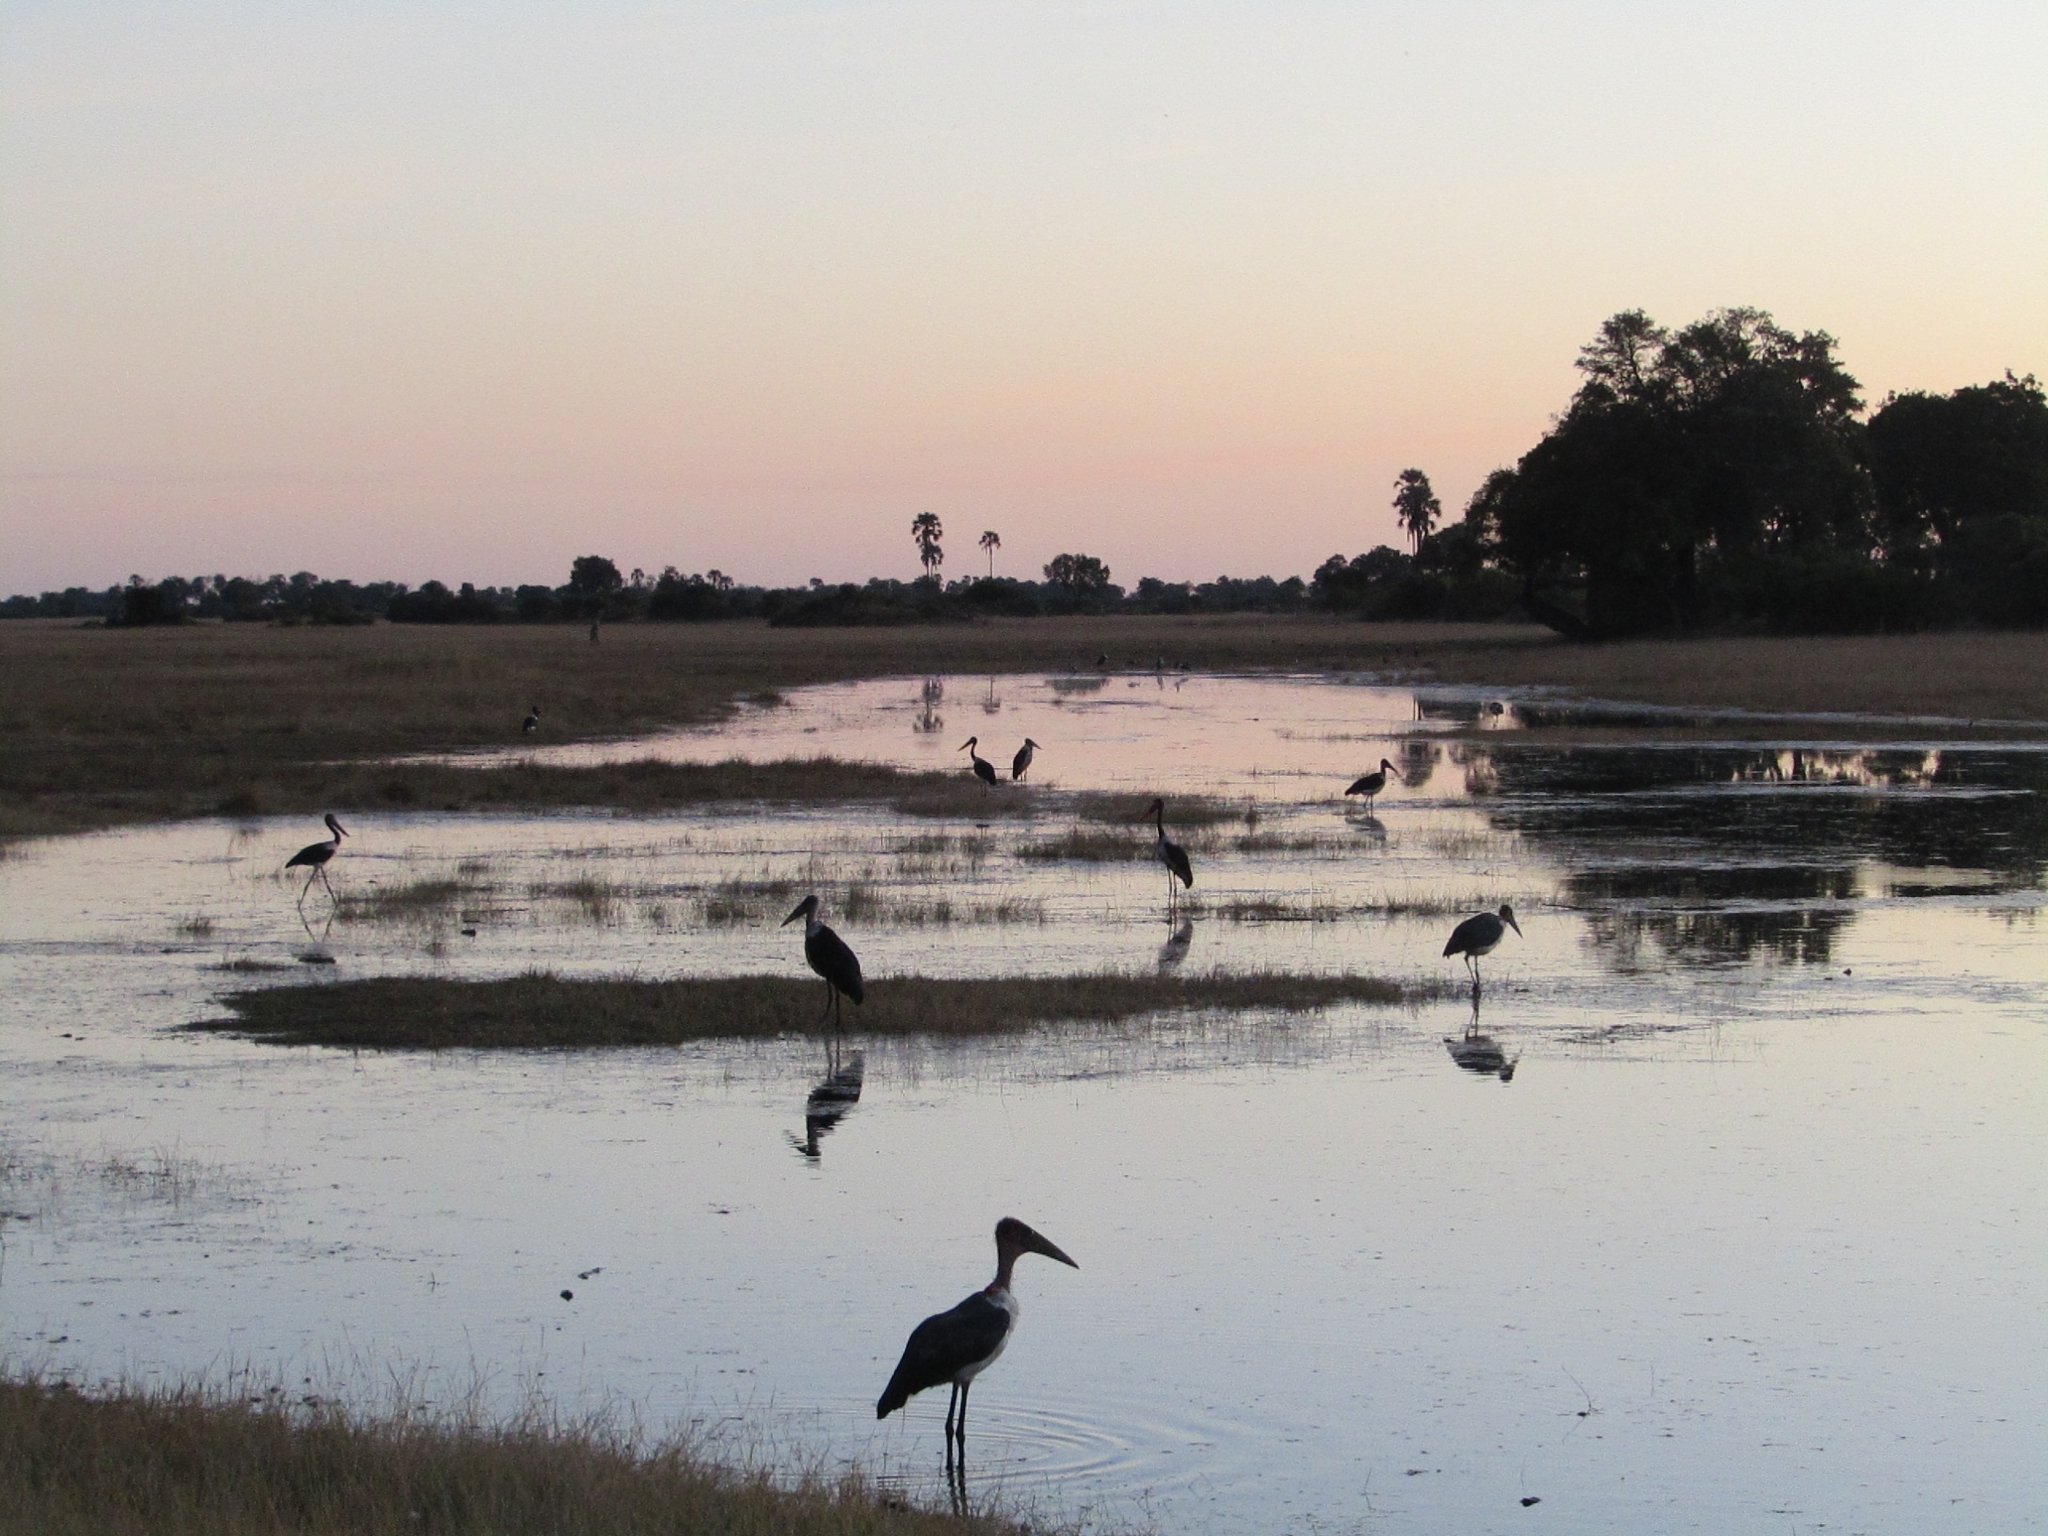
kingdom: Animalia
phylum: Chordata
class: Aves
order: Ciconiiformes
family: Ciconiidae
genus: Leptoptilos
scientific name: Leptoptilos crumenifer
